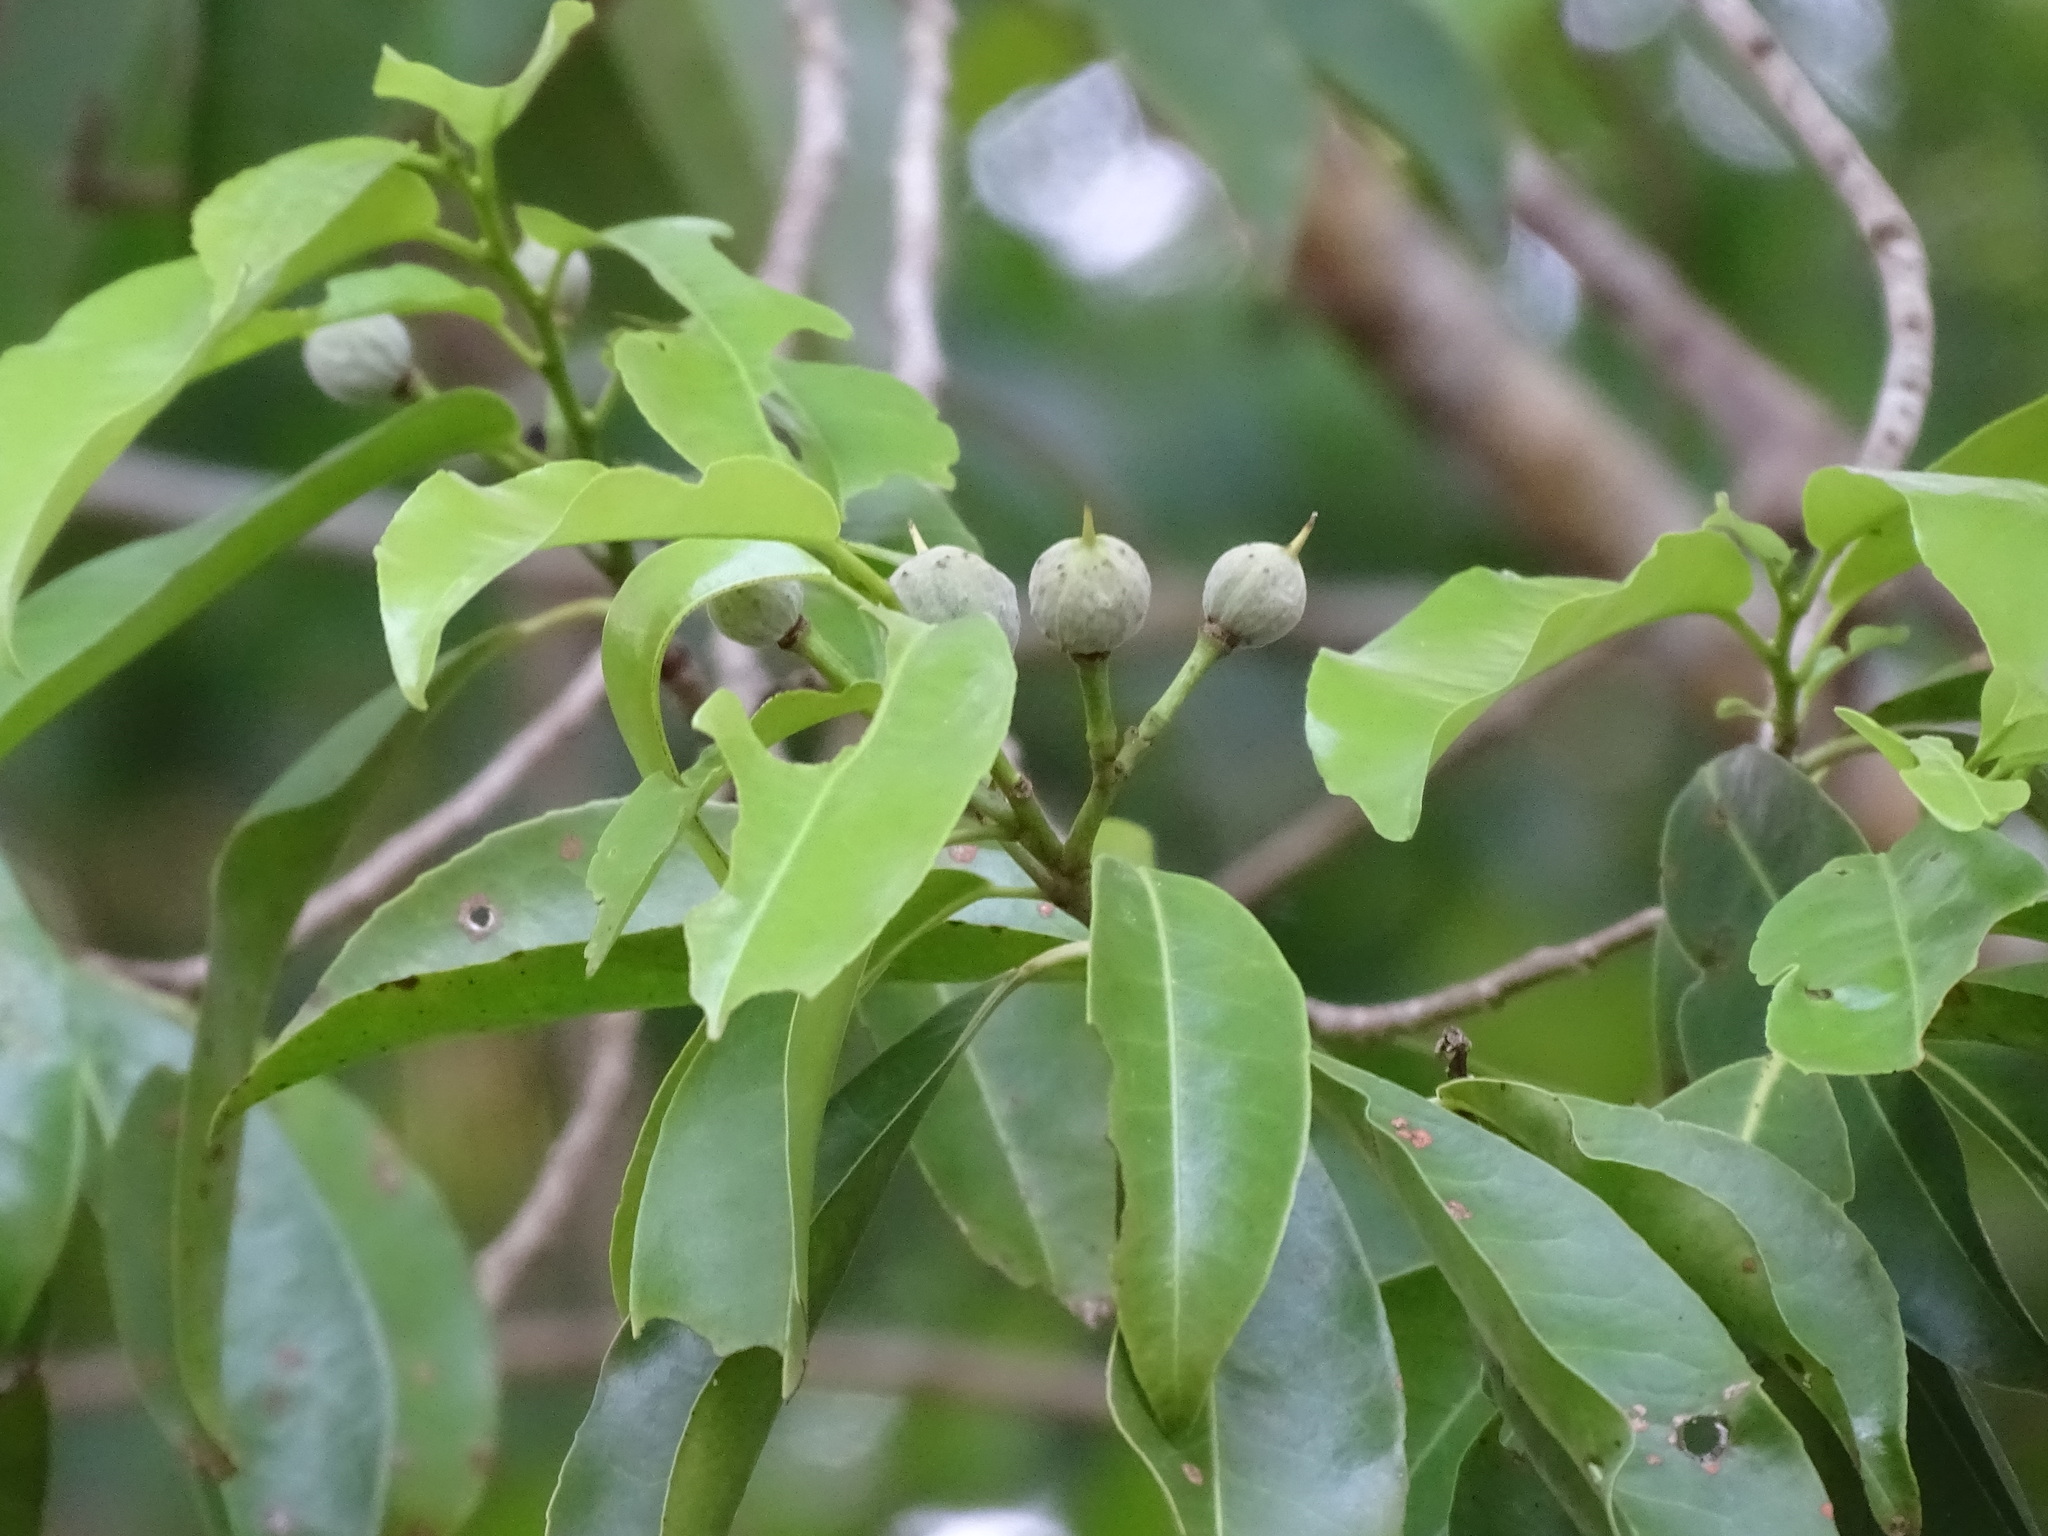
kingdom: Plantae
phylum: Tracheophyta
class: Magnoliopsida
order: Malpighiales
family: Salicaceae
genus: Casearia
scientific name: Casearia thamnia
